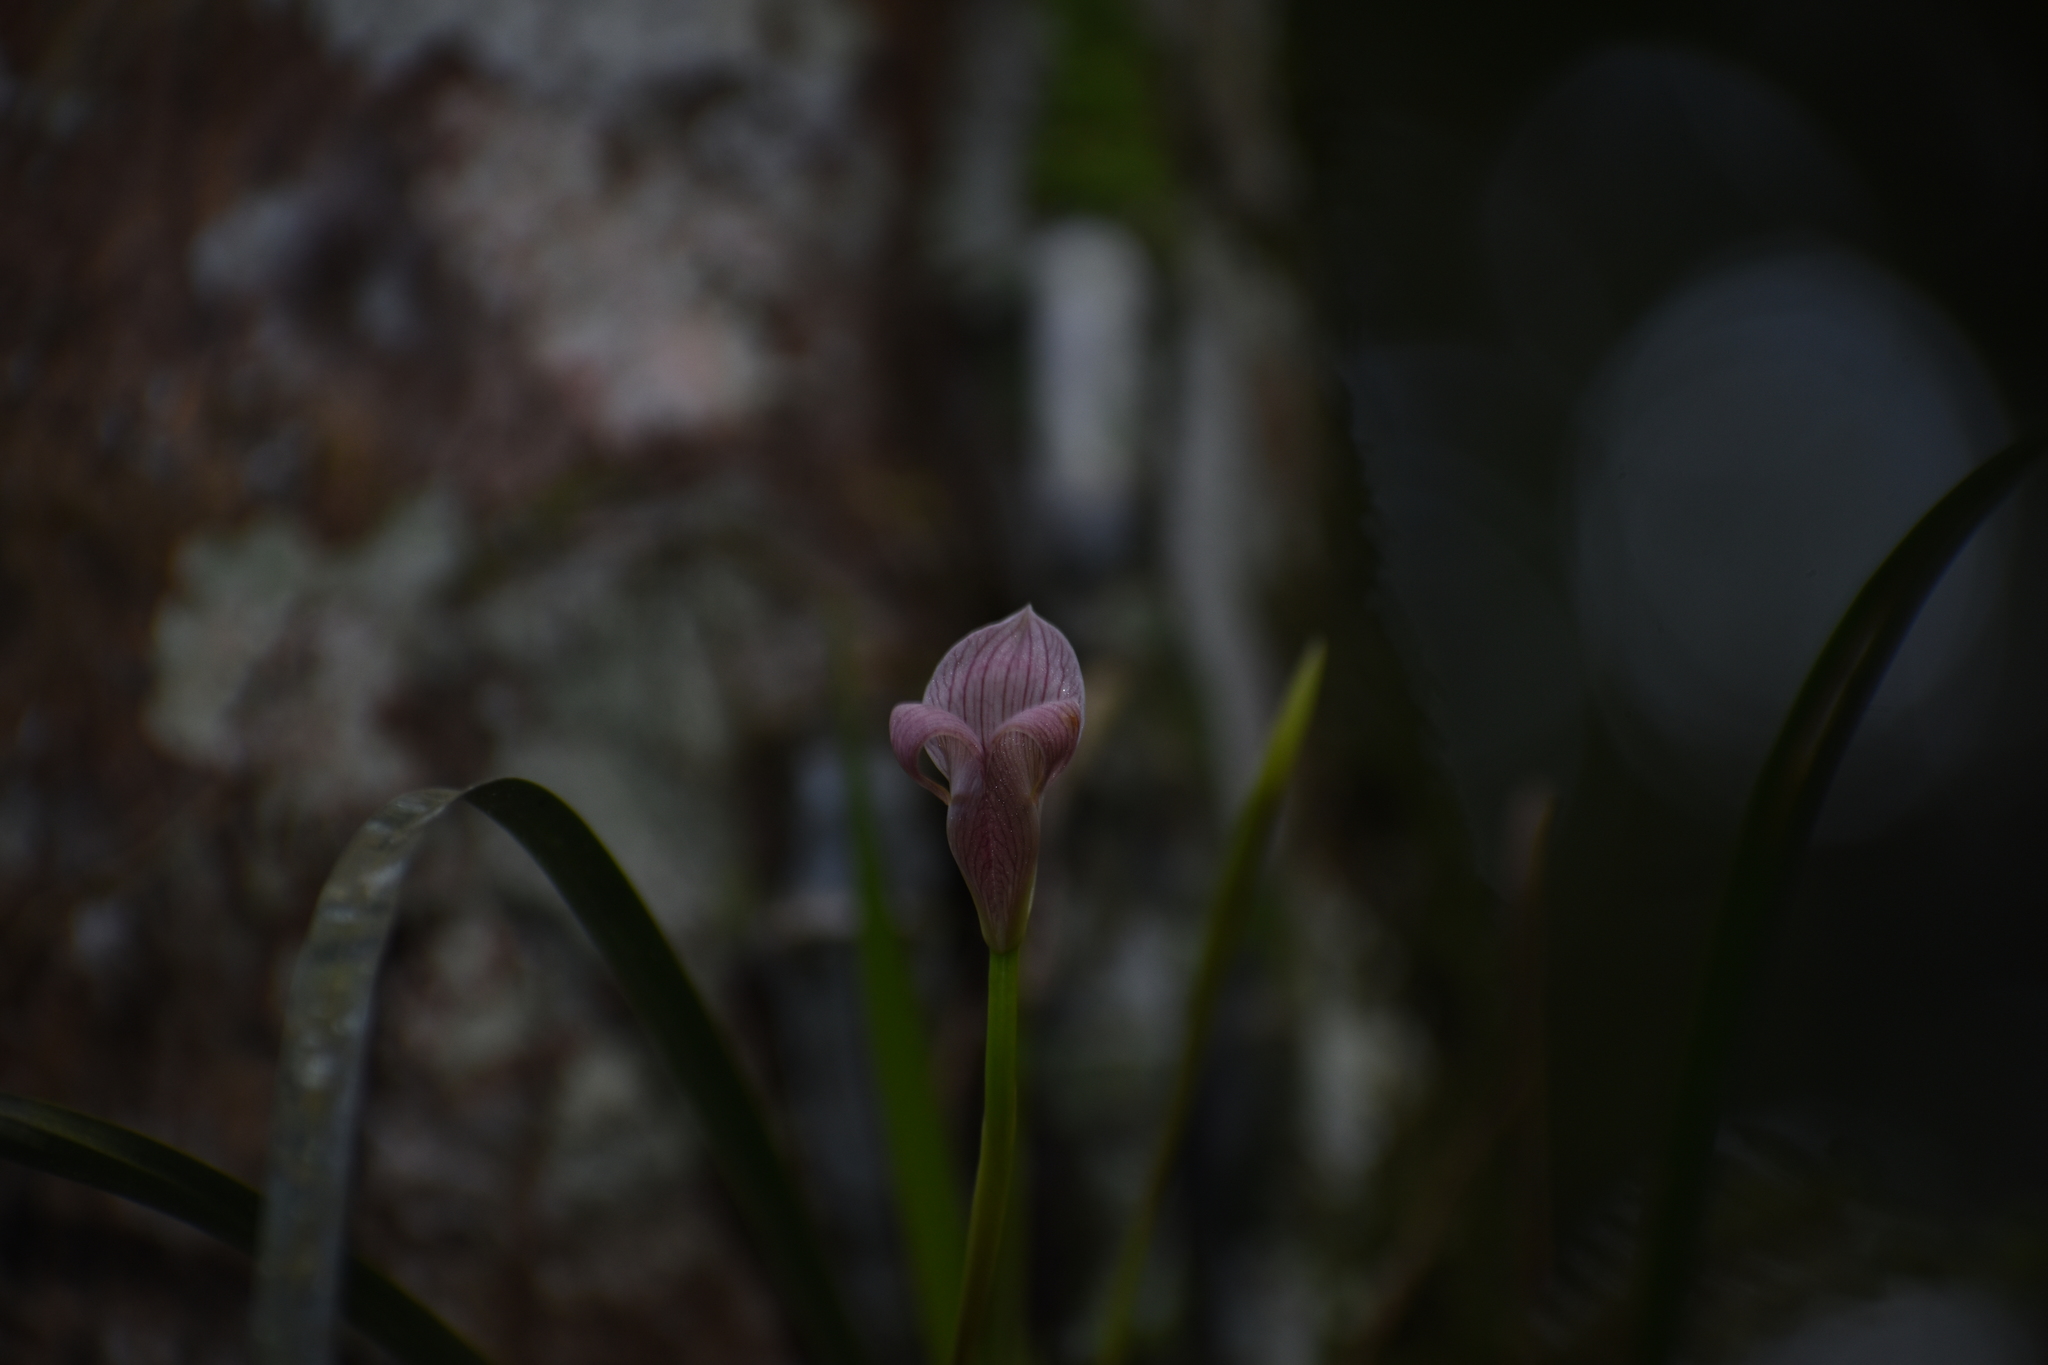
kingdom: Plantae
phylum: Tracheophyta
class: Liliopsida
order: Asparagales
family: Orchidaceae
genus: Maxillaria
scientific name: Maxillaria egertoniana
